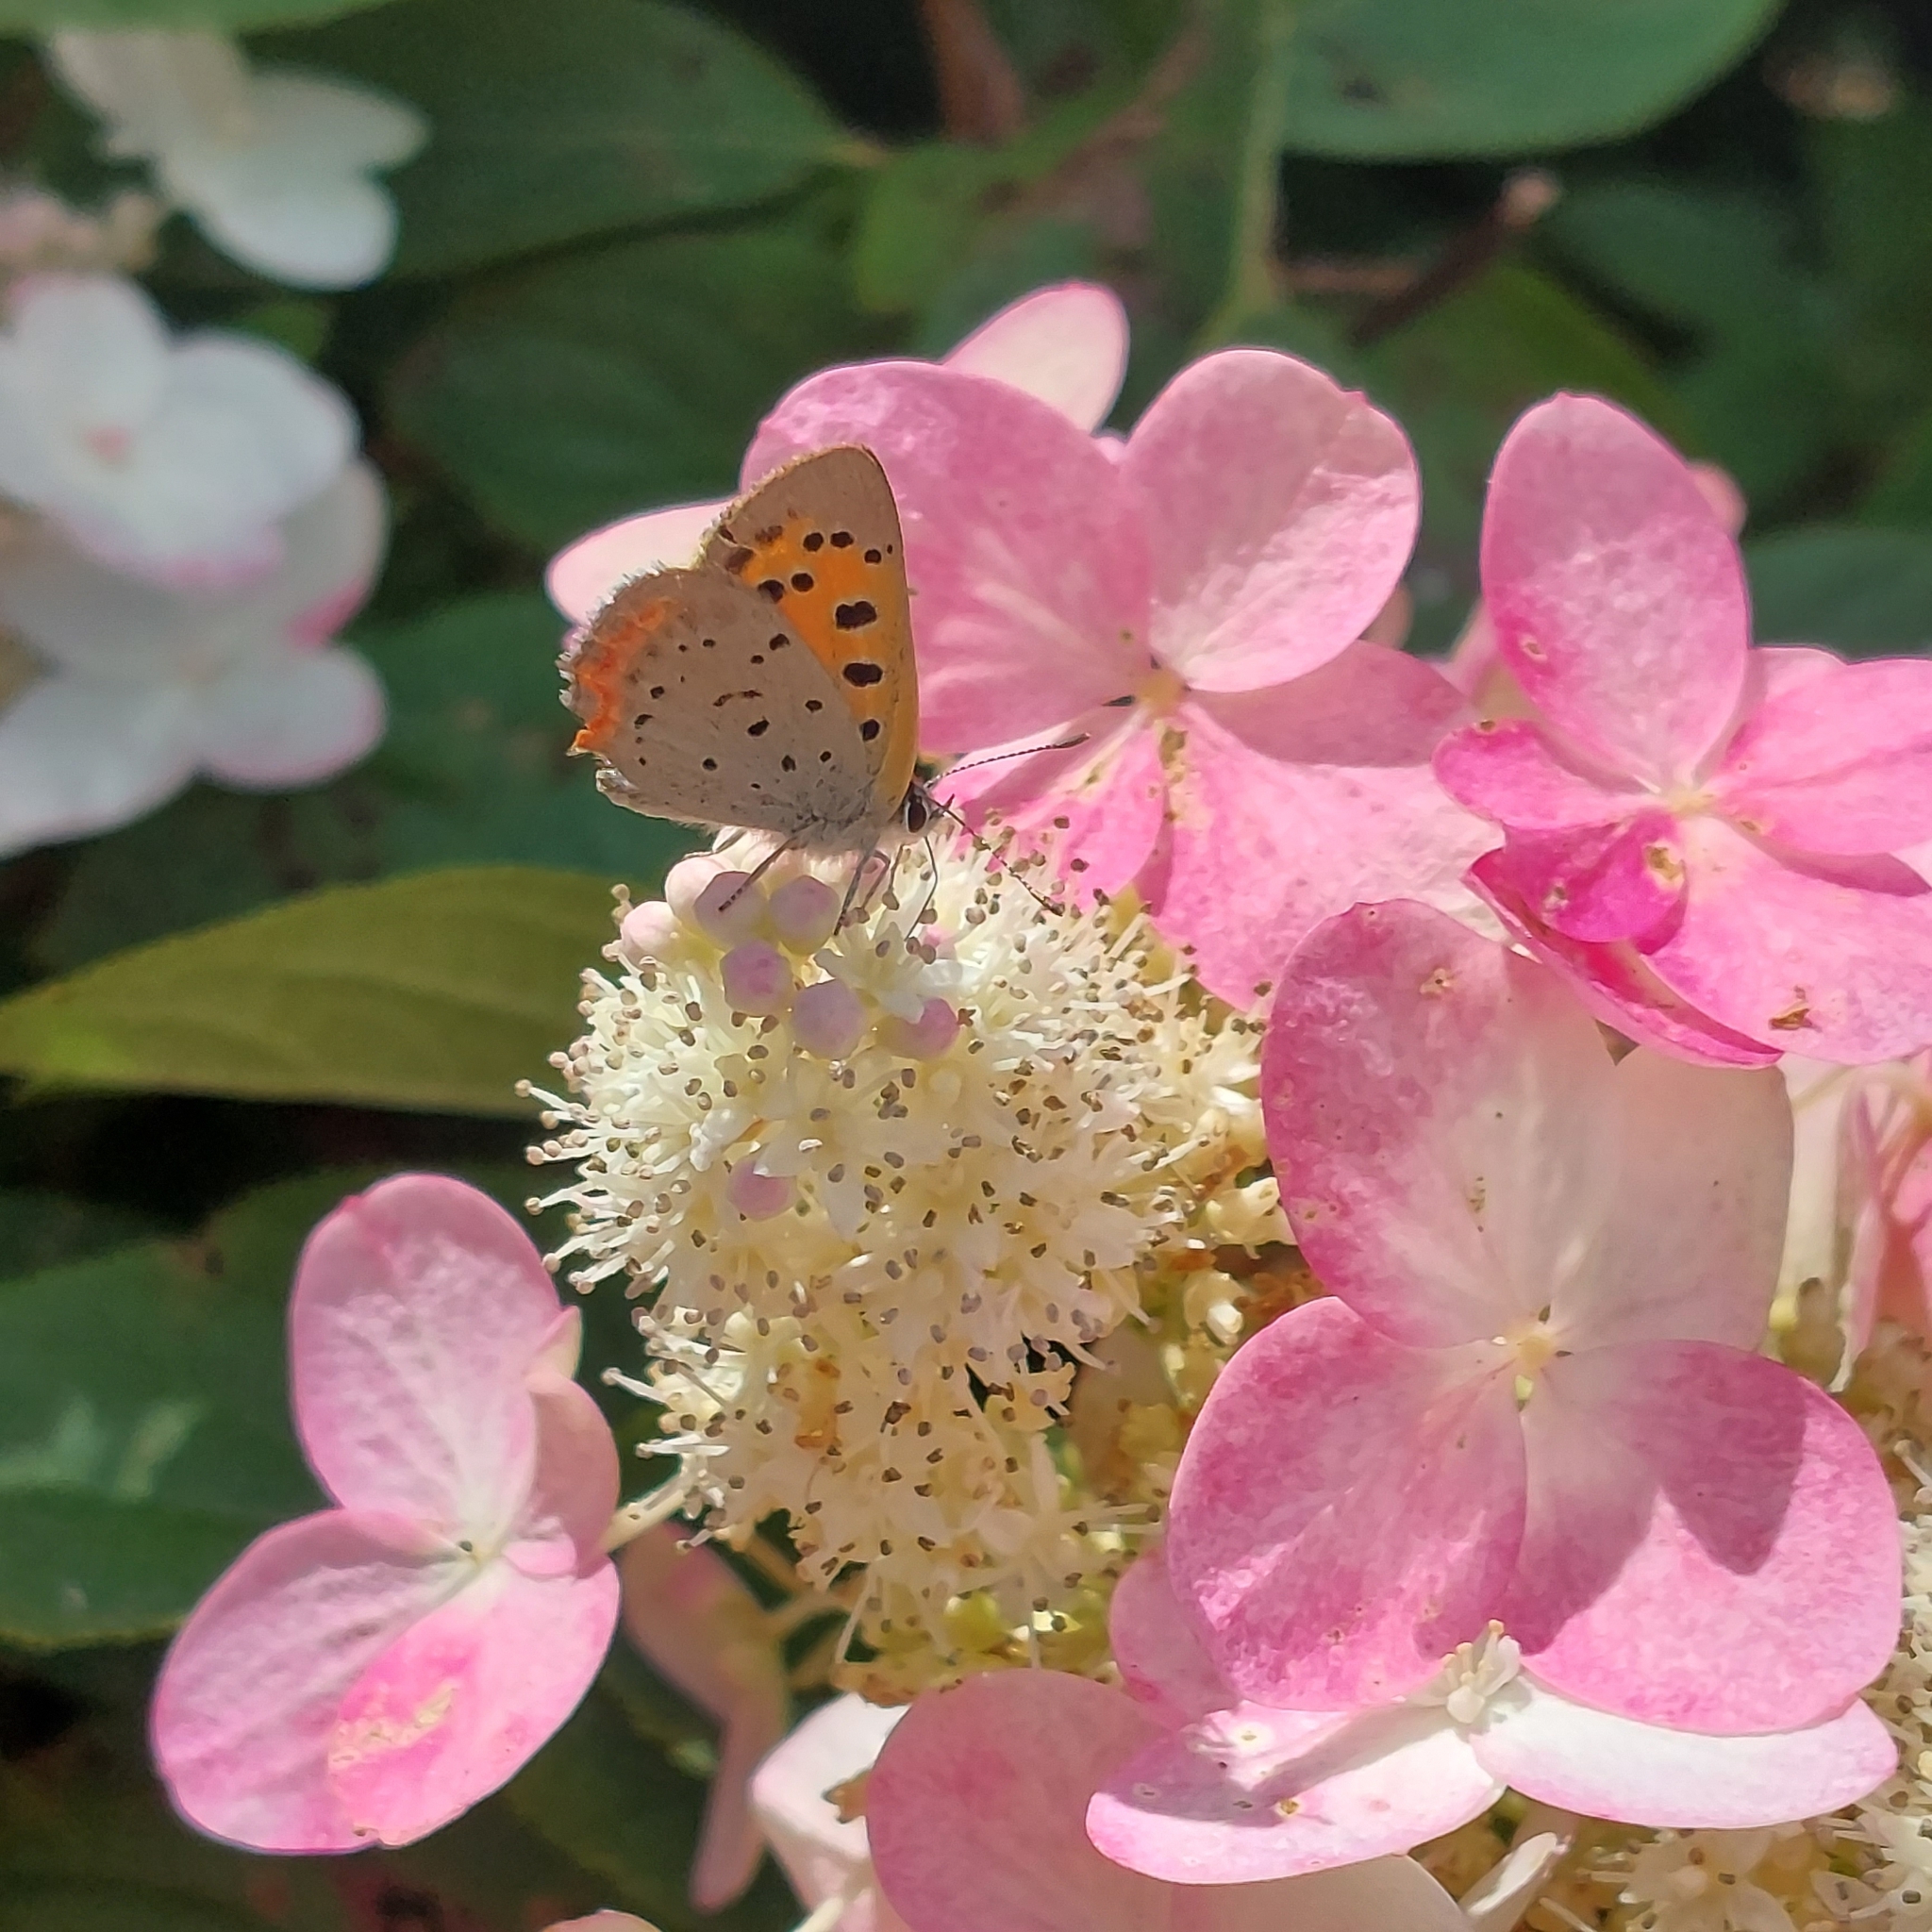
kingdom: Animalia
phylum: Arthropoda
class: Insecta
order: Lepidoptera
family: Lycaenidae
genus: Lycaena
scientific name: Lycaena hypophlaeas
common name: American copper
